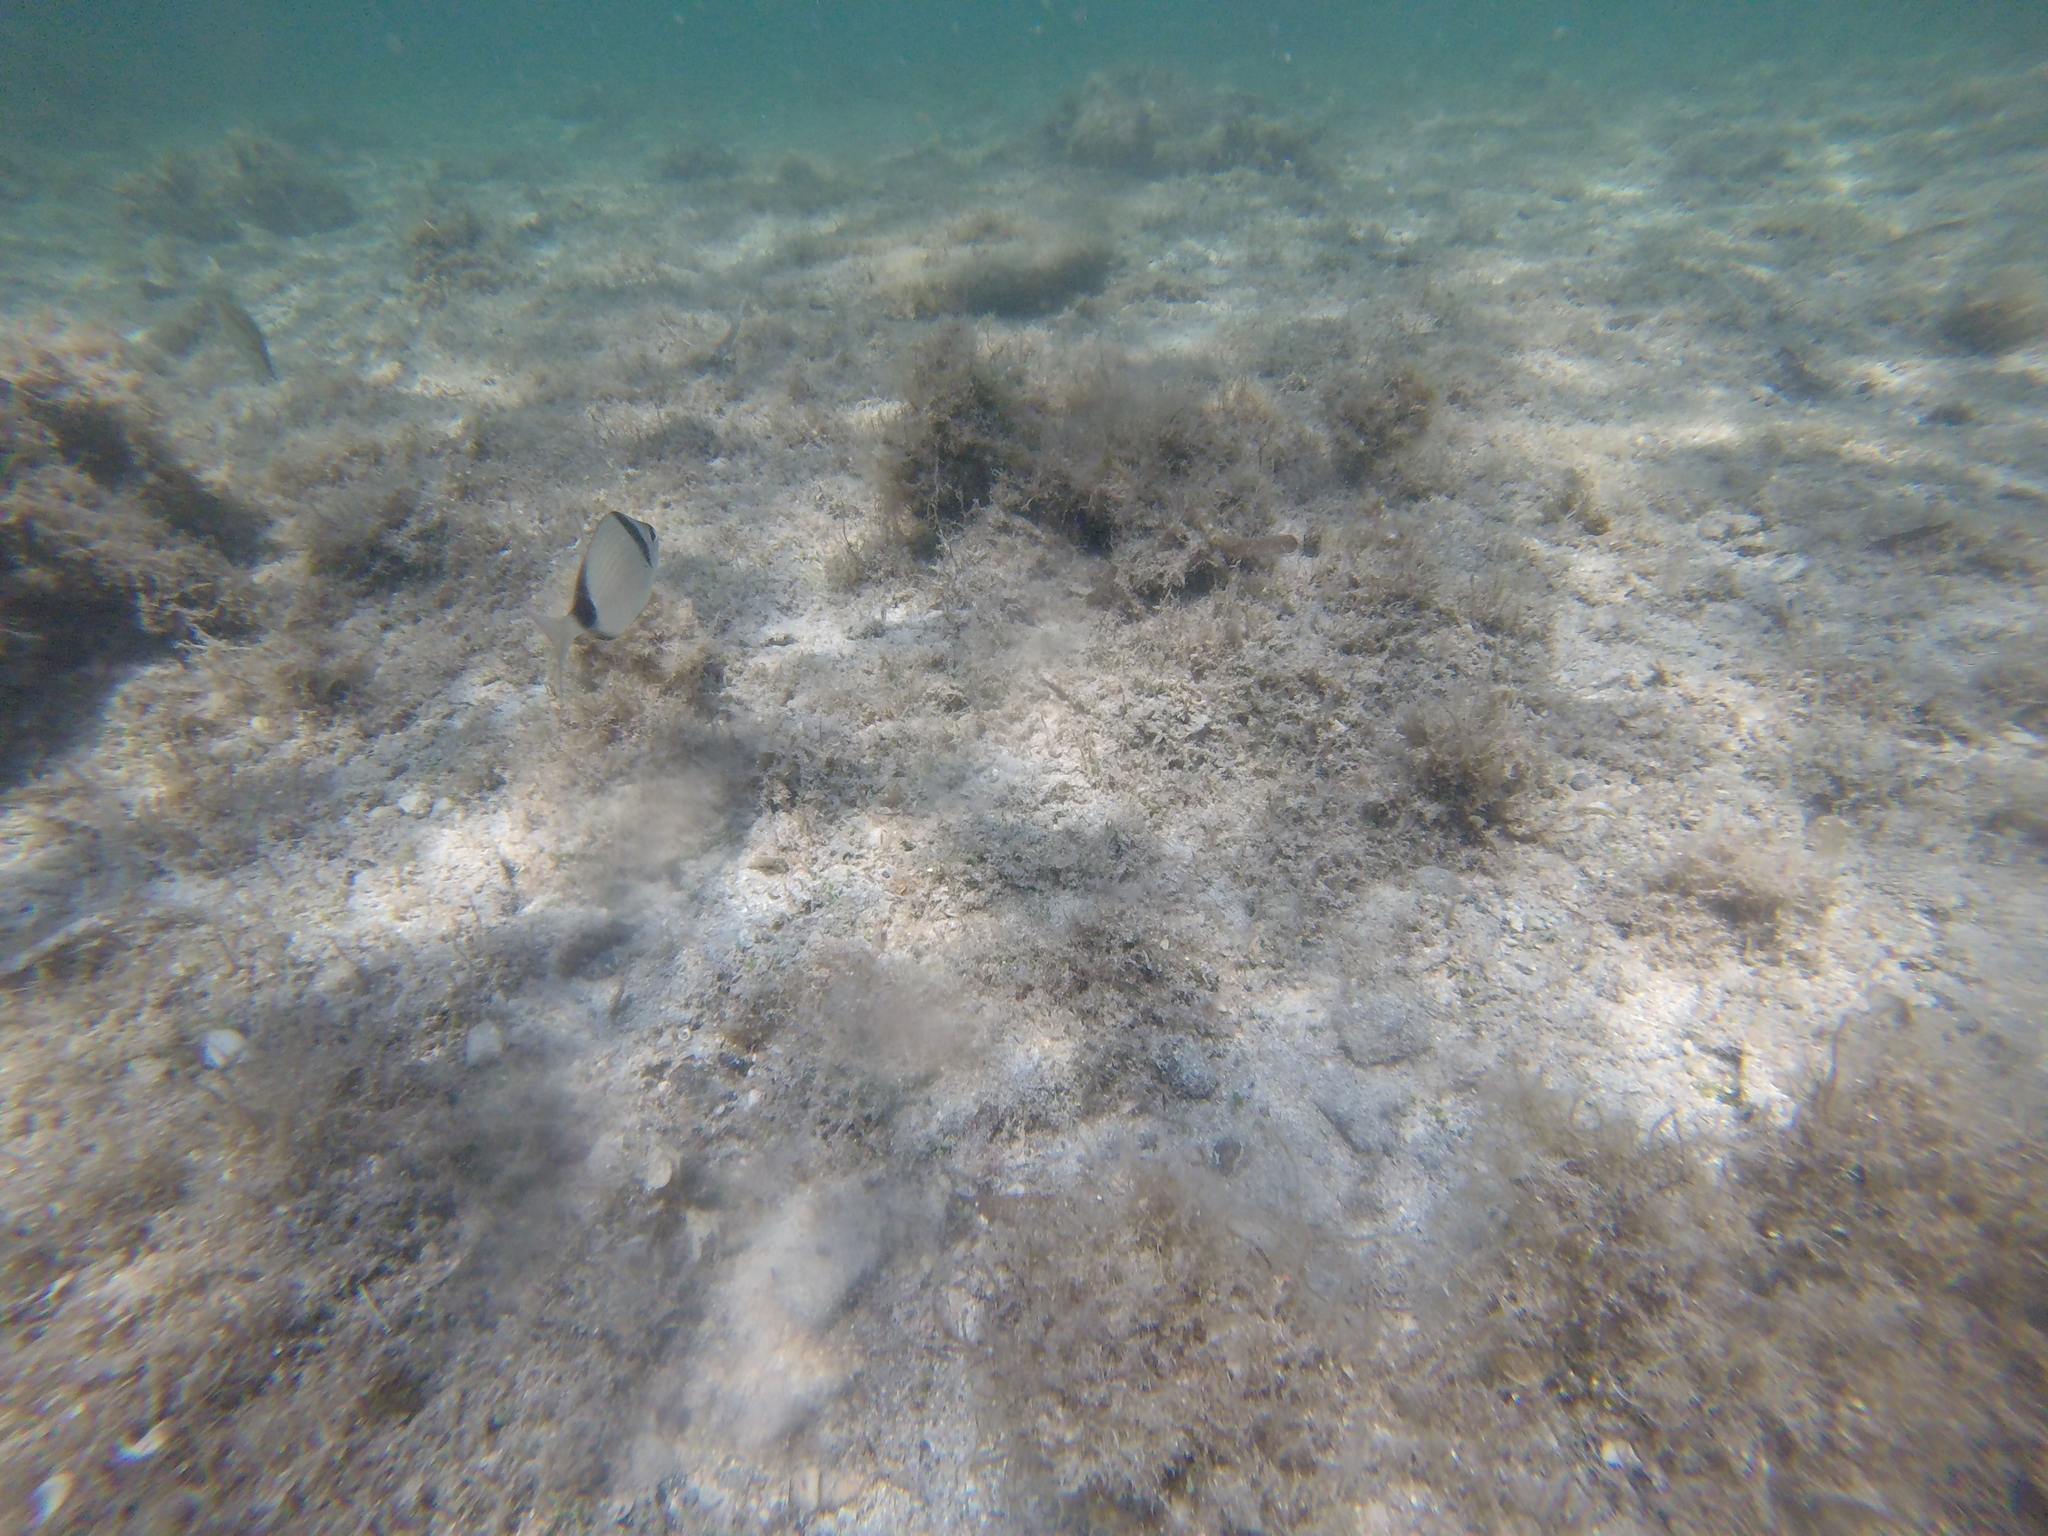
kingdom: Animalia
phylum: Chordata
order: Perciformes
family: Sparidae
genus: Diplodus
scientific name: Diplodus vulgaris
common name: Common two-banded seabream
